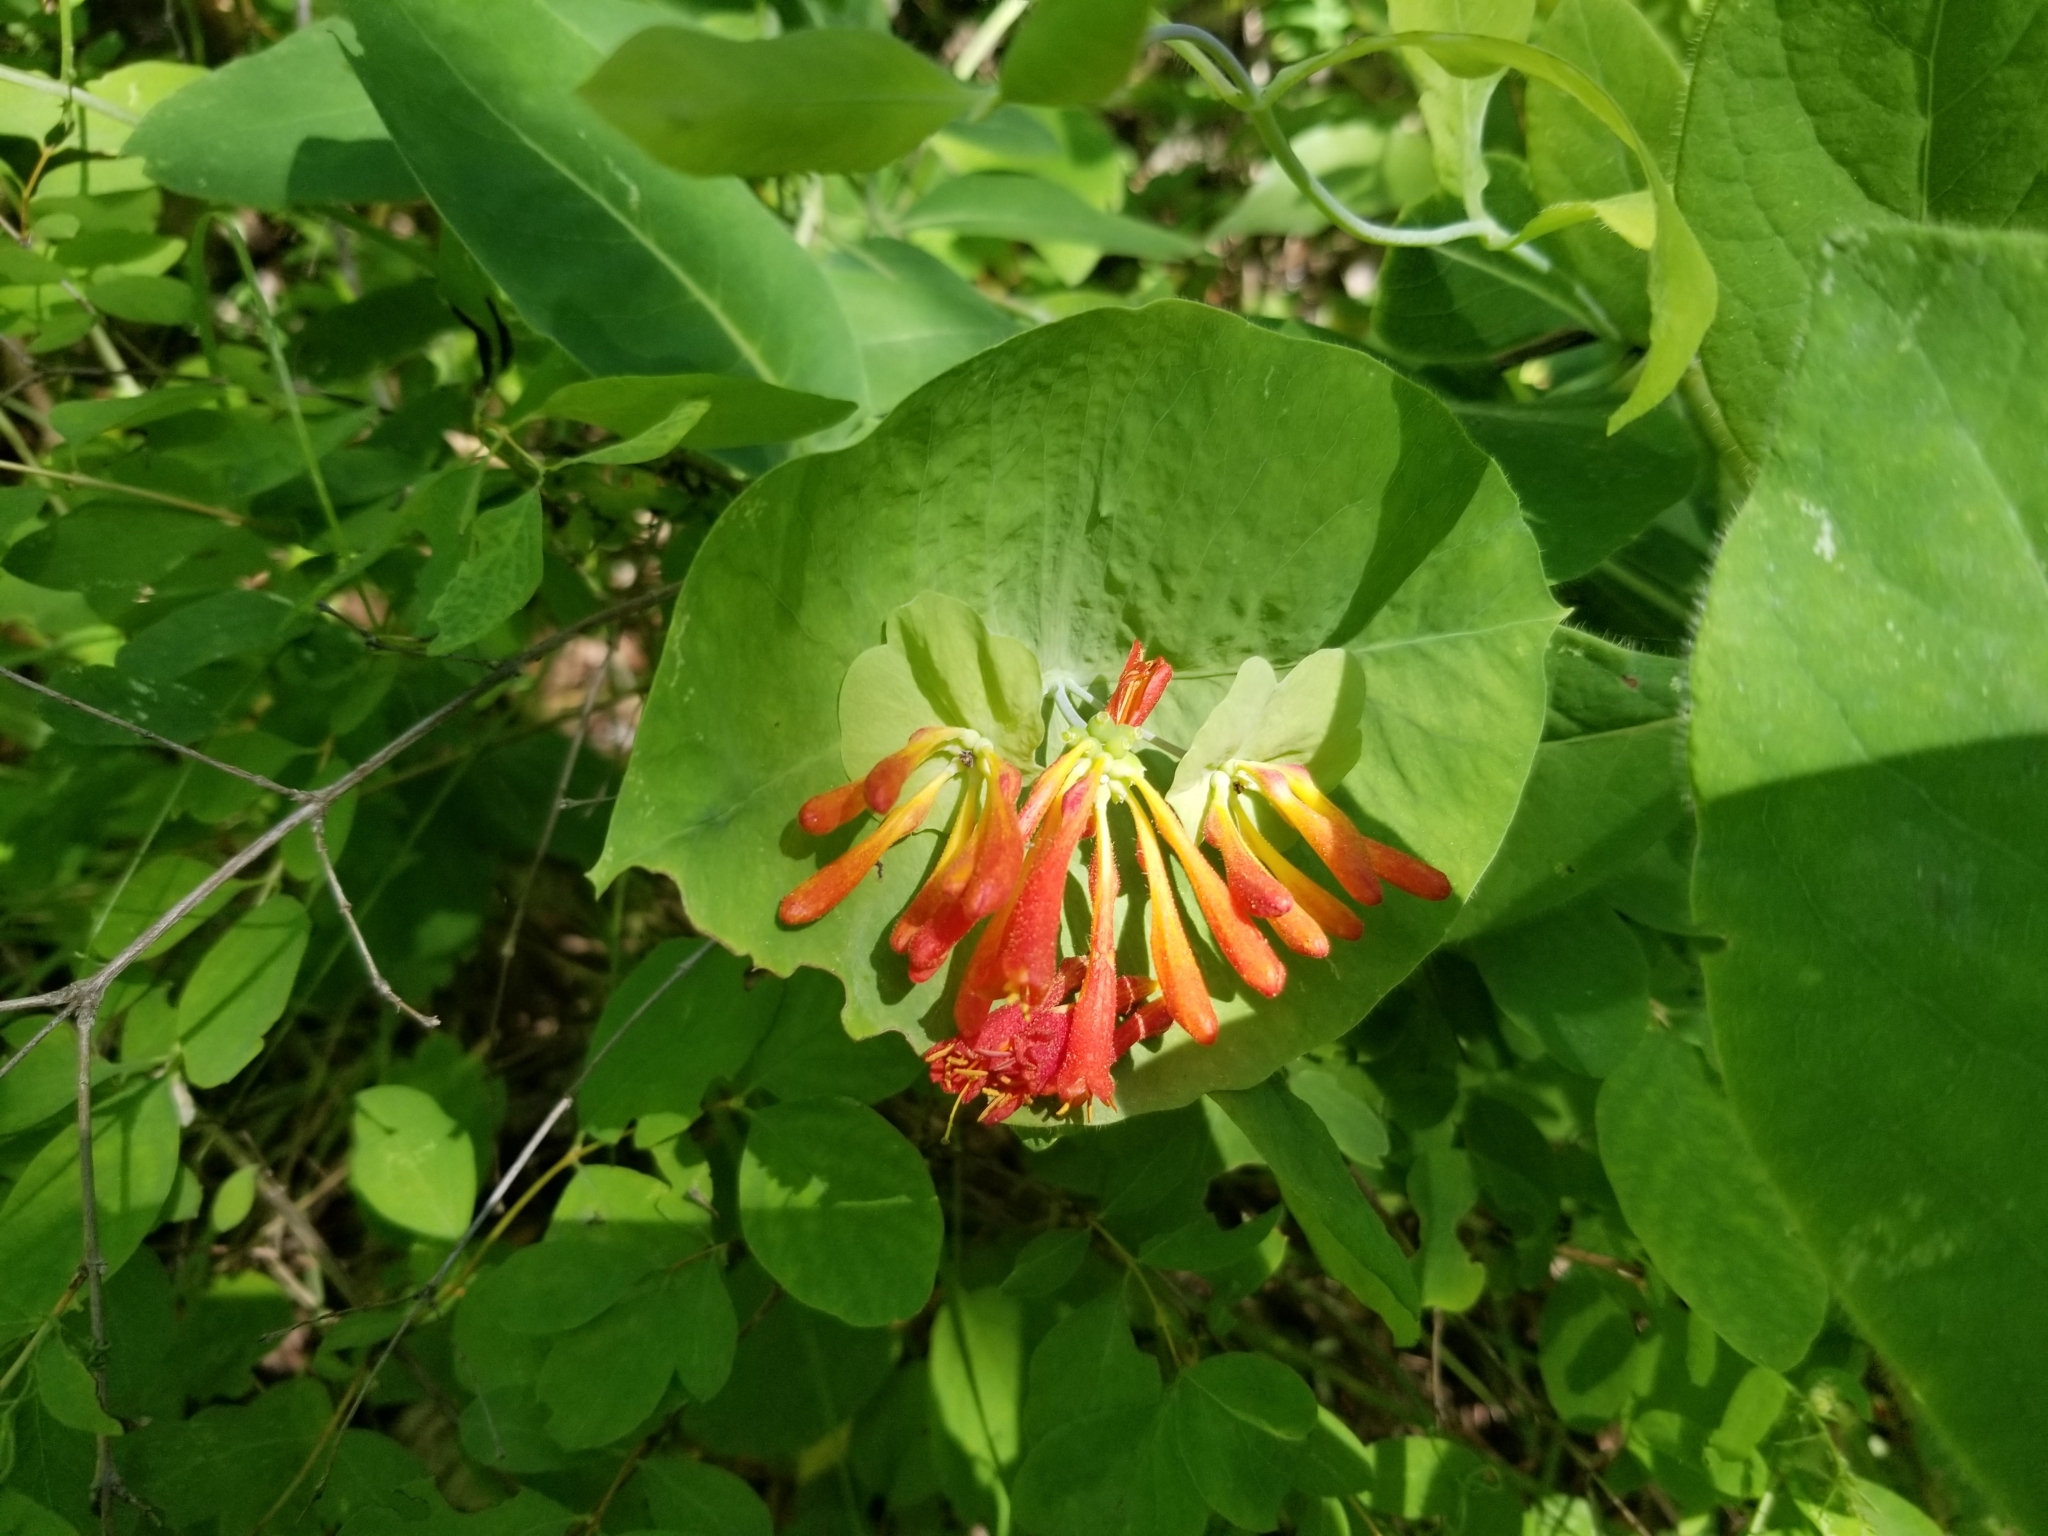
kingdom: Plantae
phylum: Tracheophyta
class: Magnoliopsida
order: Dipsacales
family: Caprifoliaceae
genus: Lonicera
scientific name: Lonicera ciliosa
